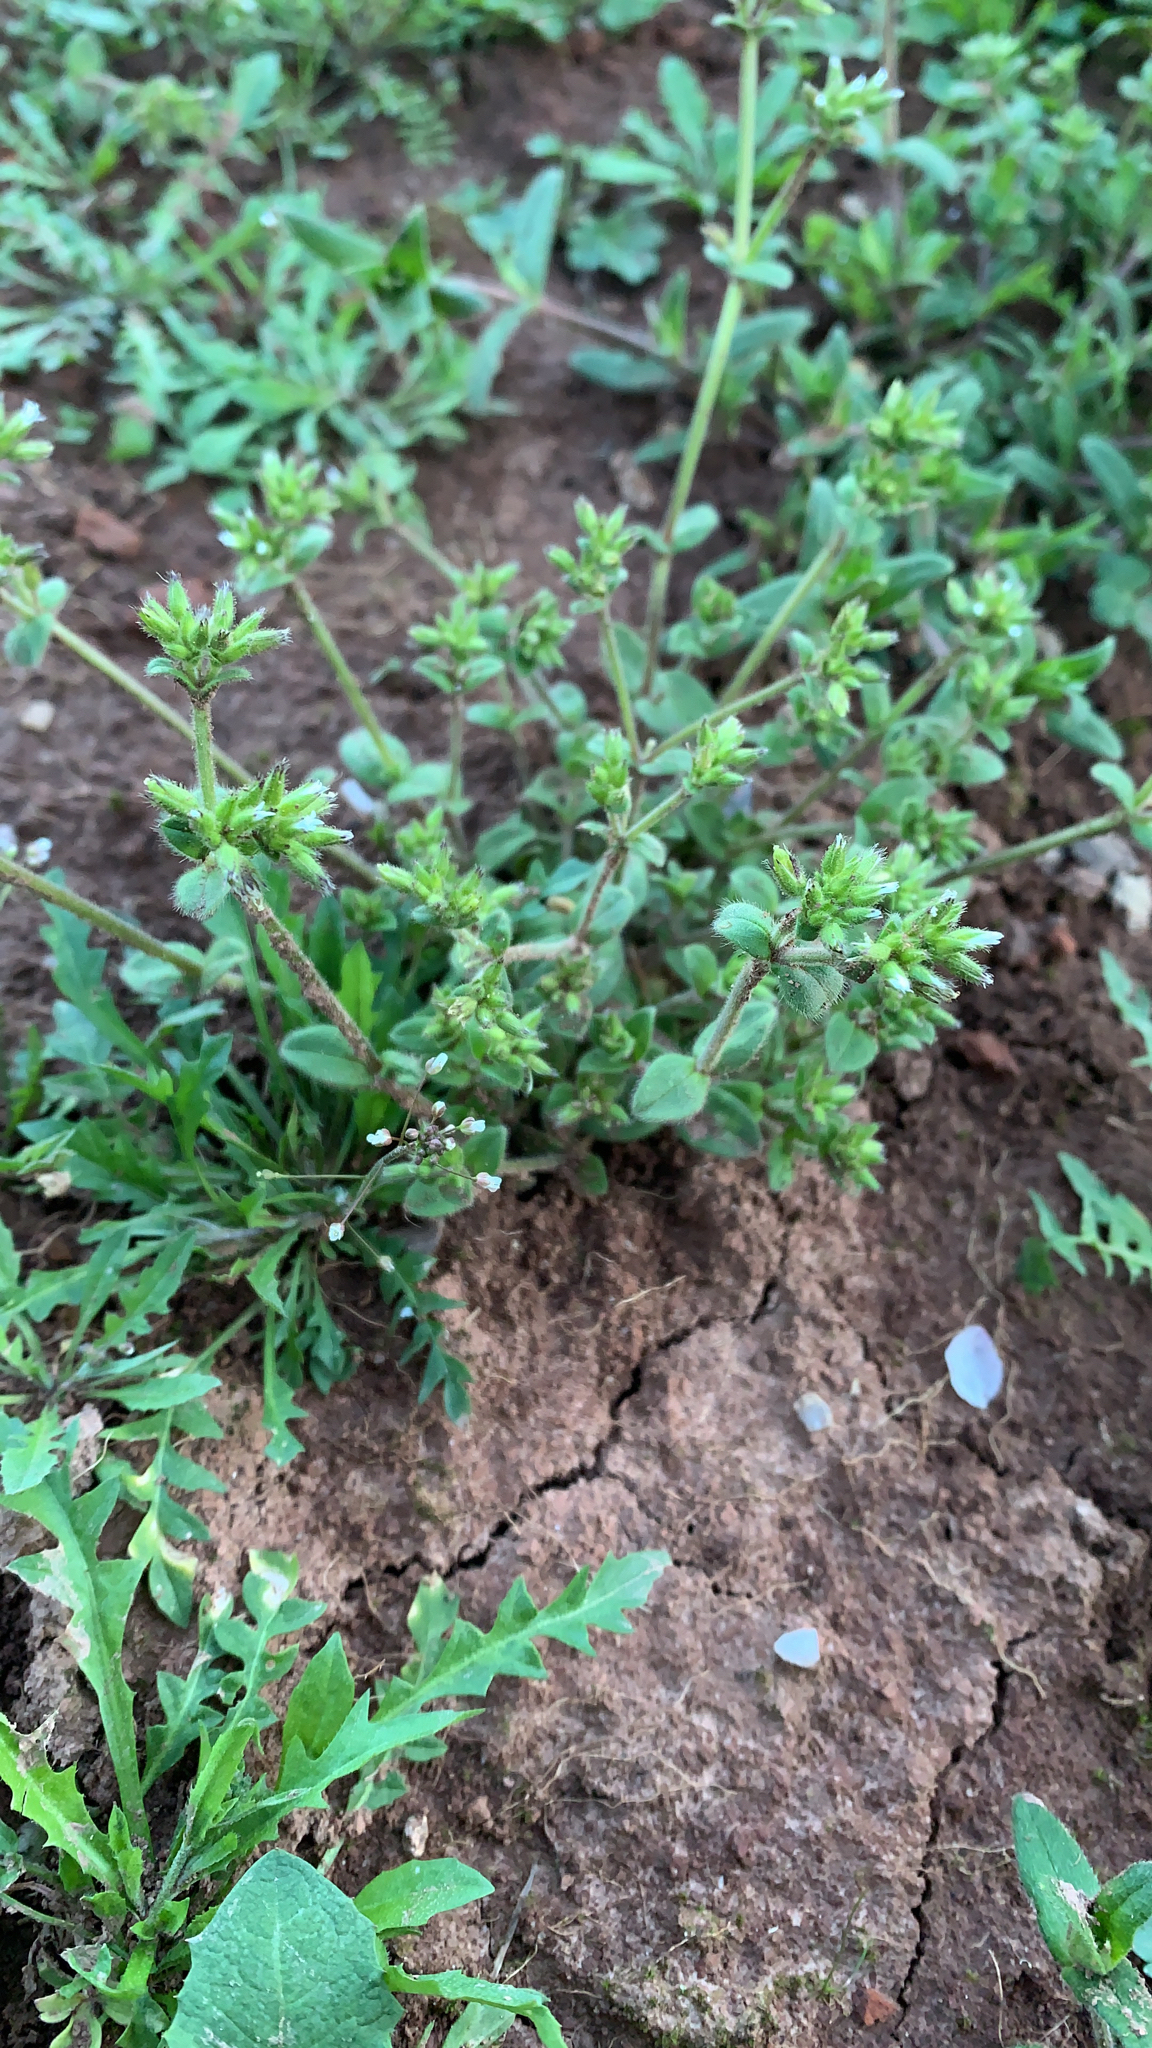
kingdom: Plantae
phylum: Tracheophyta
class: Magnoliopsida
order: Caryophyllales
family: Caryophyllaceae
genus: Cerastium
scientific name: Cerastium glomeratum
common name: Sticky chickweed
